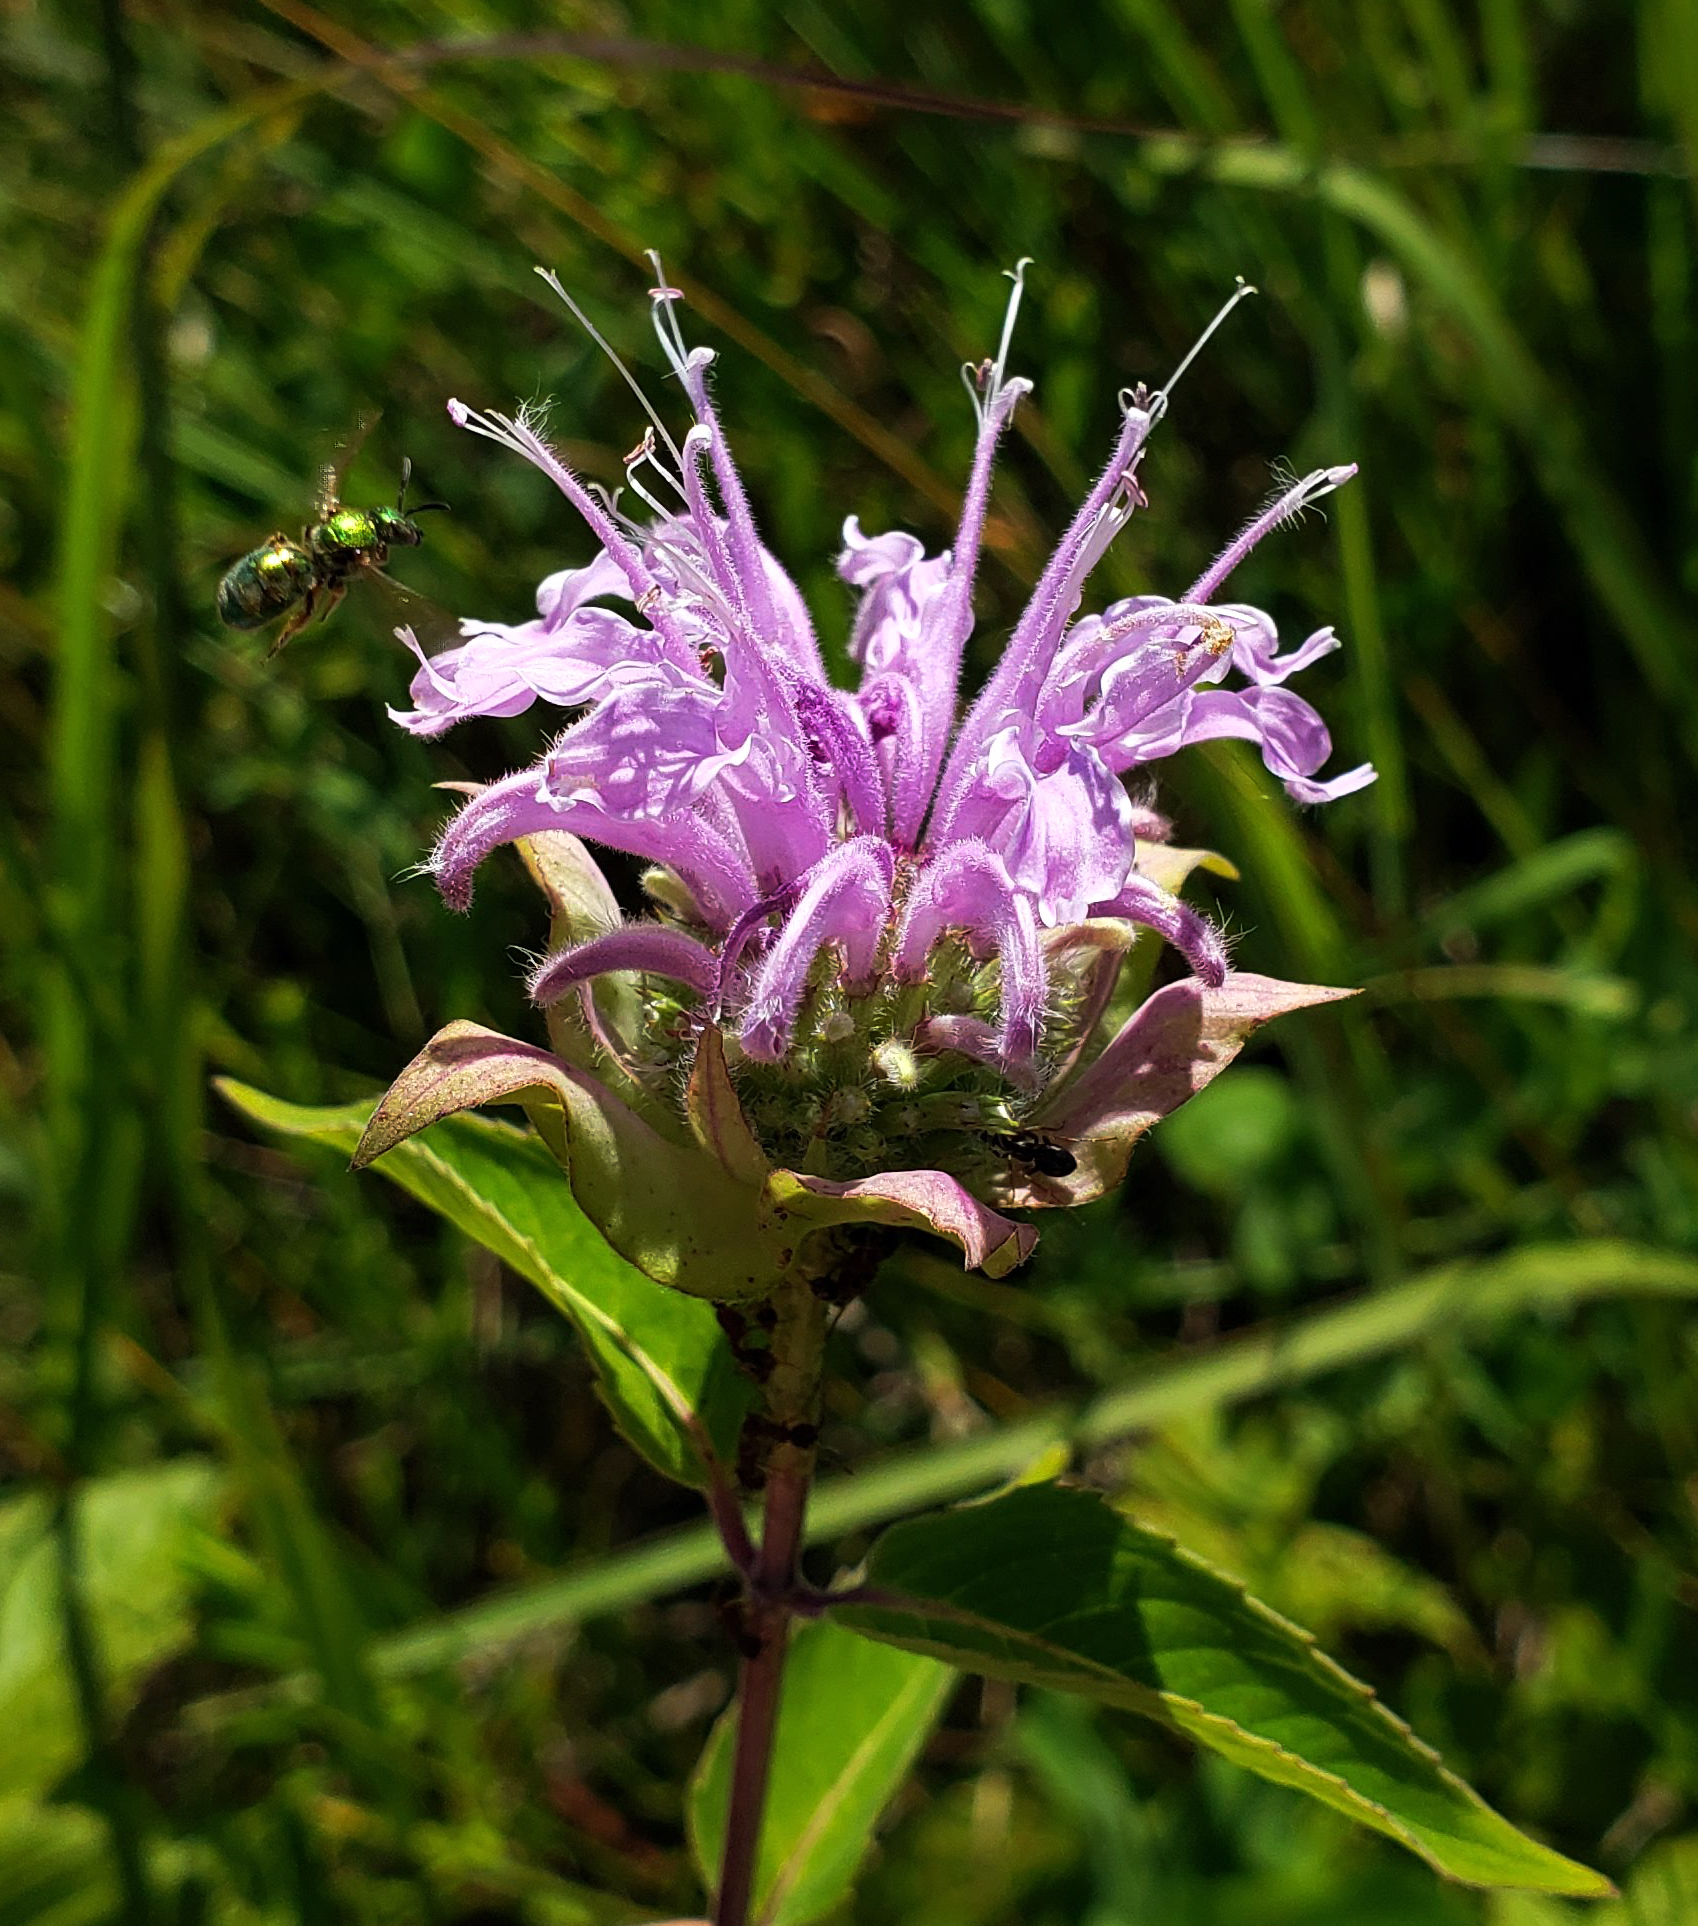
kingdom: Plantae
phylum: Tracheophyta
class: Magnoliopsida
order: Lamiales
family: Lamiaceae
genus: Monarda
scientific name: Monarda fistulosa
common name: Purple beebalm
